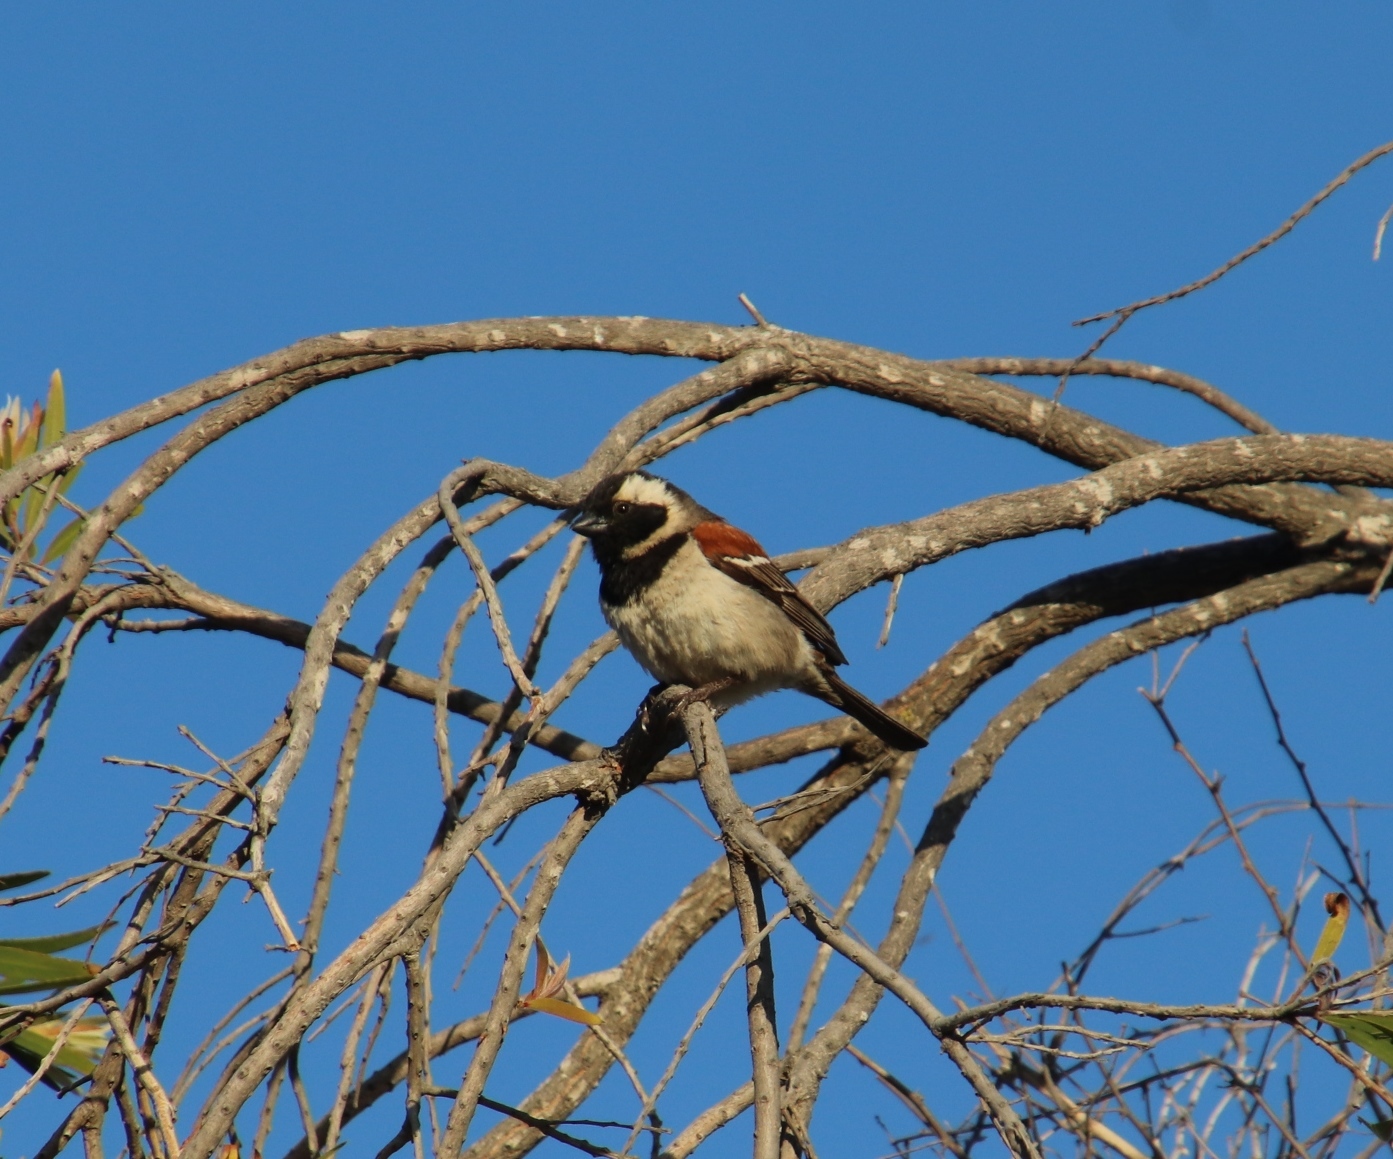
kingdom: Animalia
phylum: Chordata
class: Aves
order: Passeriformes
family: Passeridae
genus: Passer
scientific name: Passer melanurus
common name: Cape sparrow
